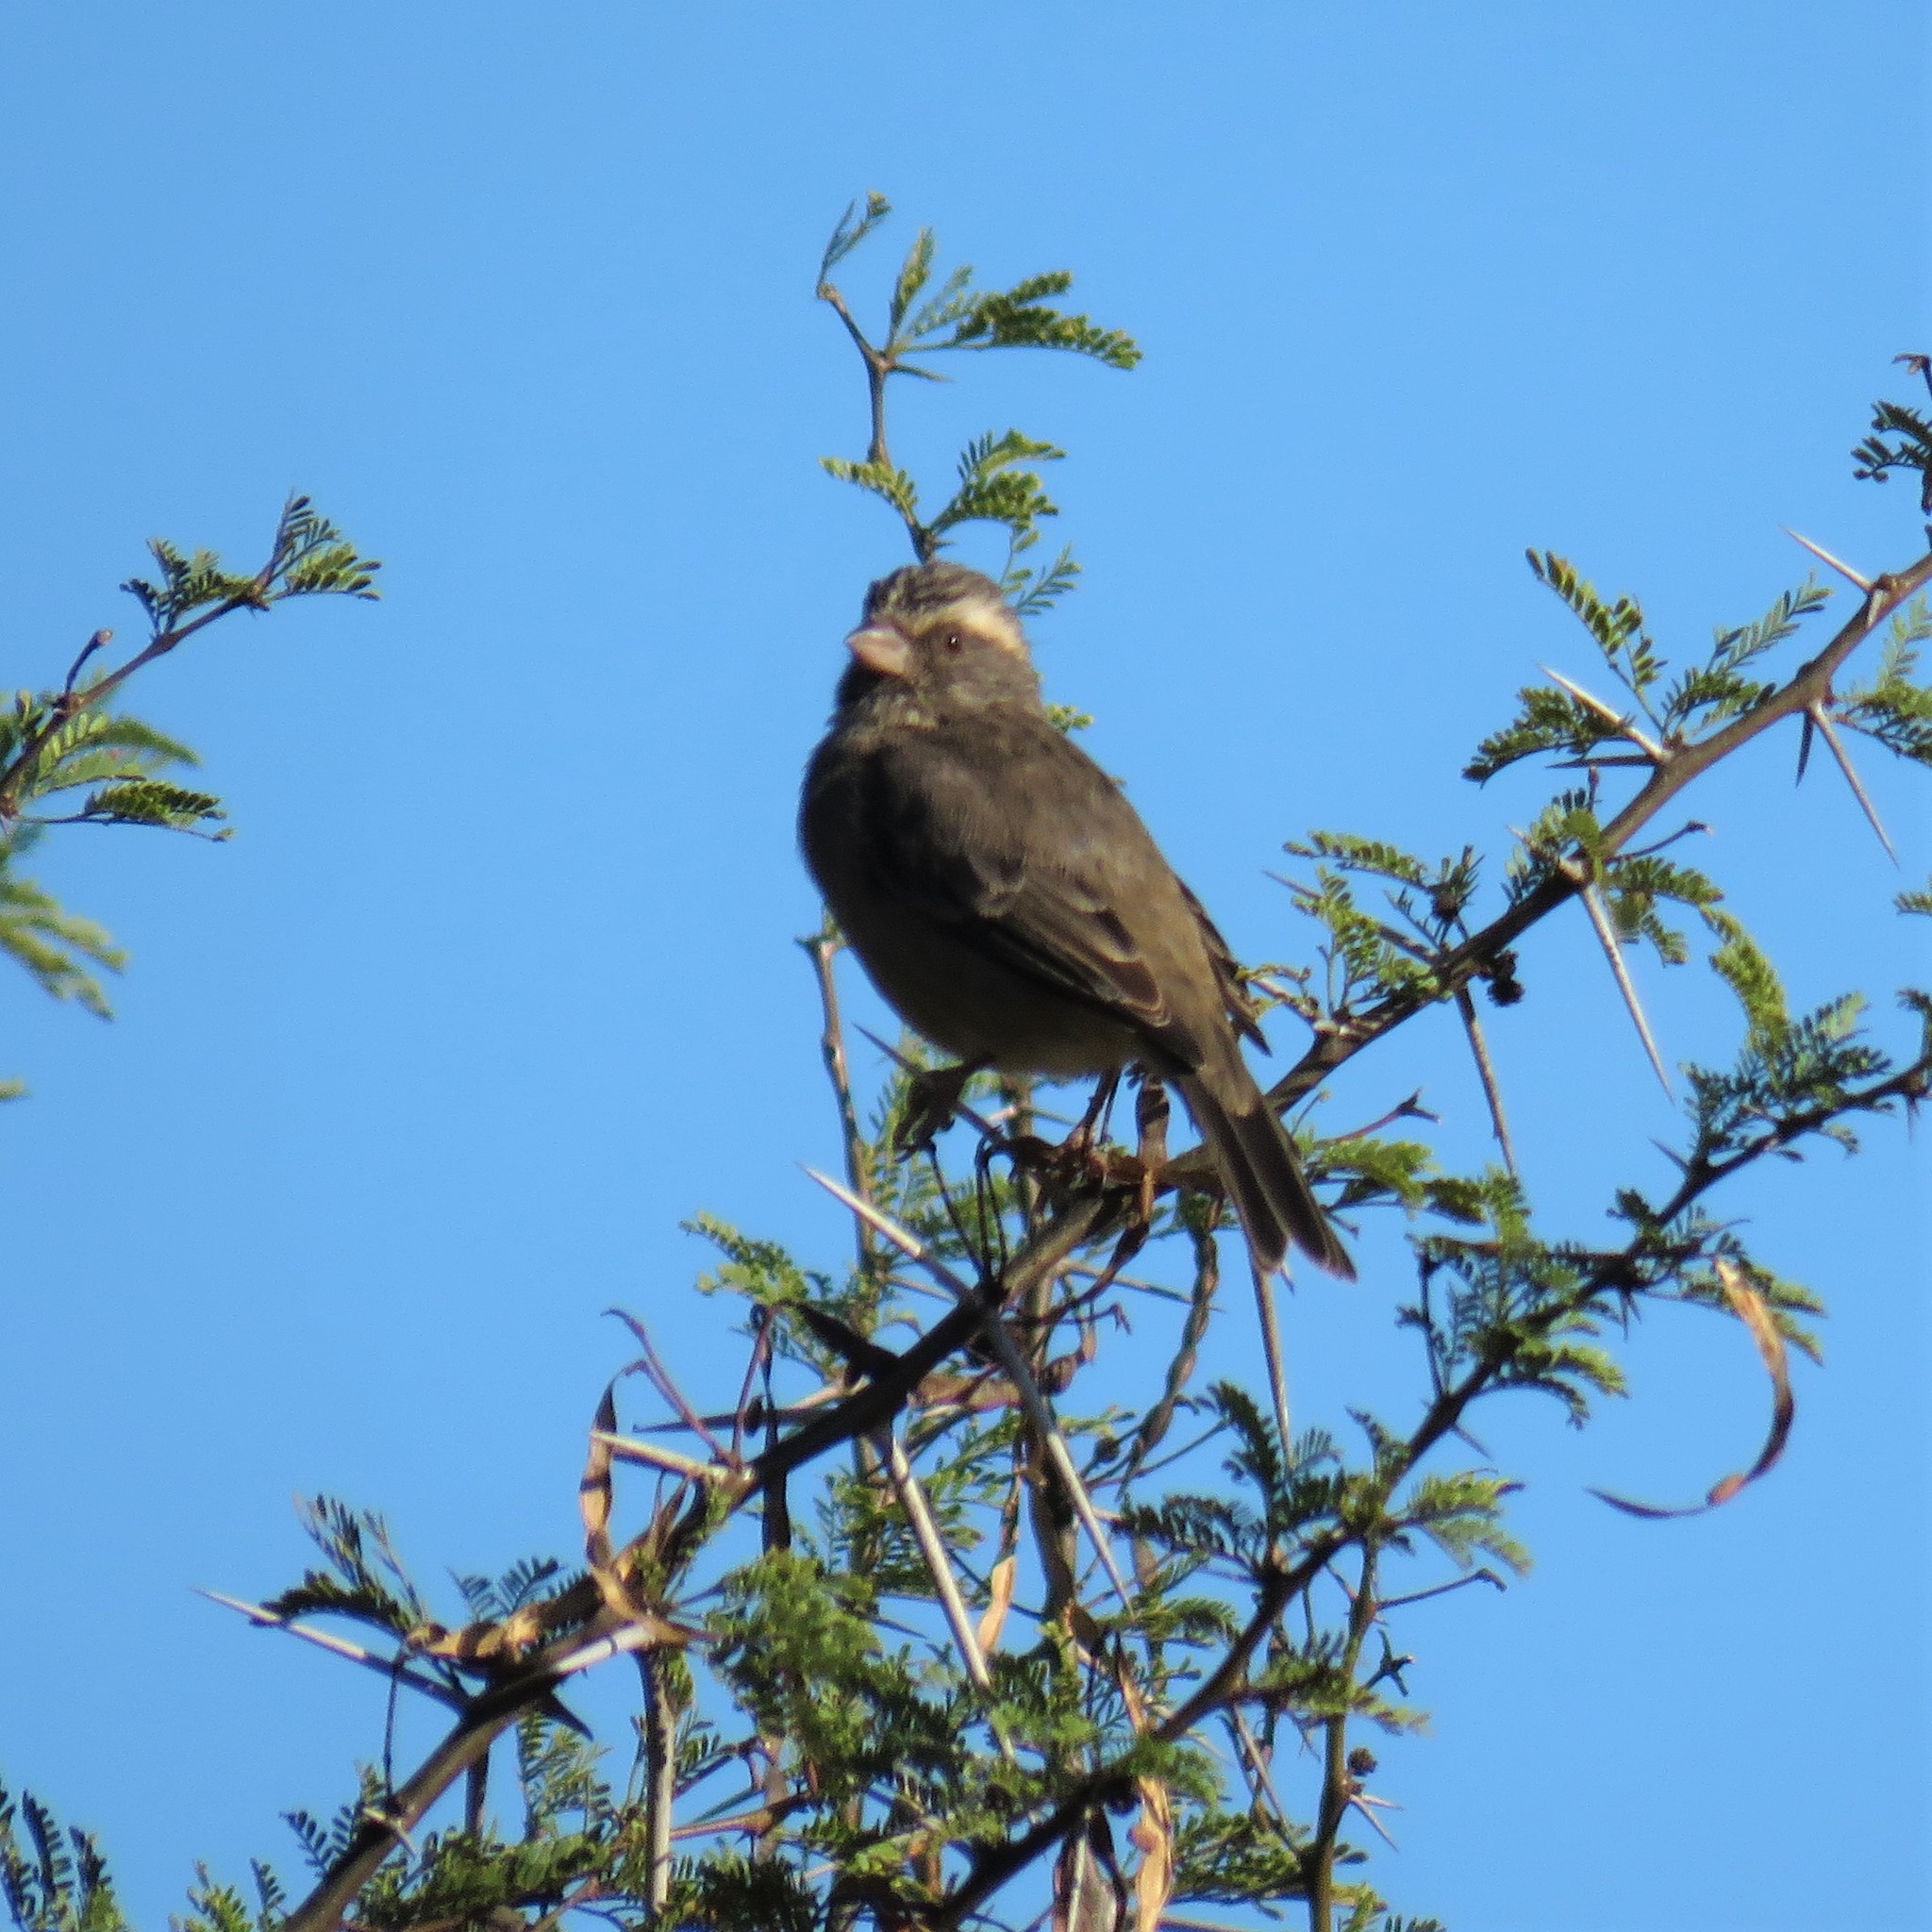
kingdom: Animalia
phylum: Chordata
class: Aves
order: Passeriformes
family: Fringillidae
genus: Crithagra
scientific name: Crithagra gularis
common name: Streaky-headed seedeater
